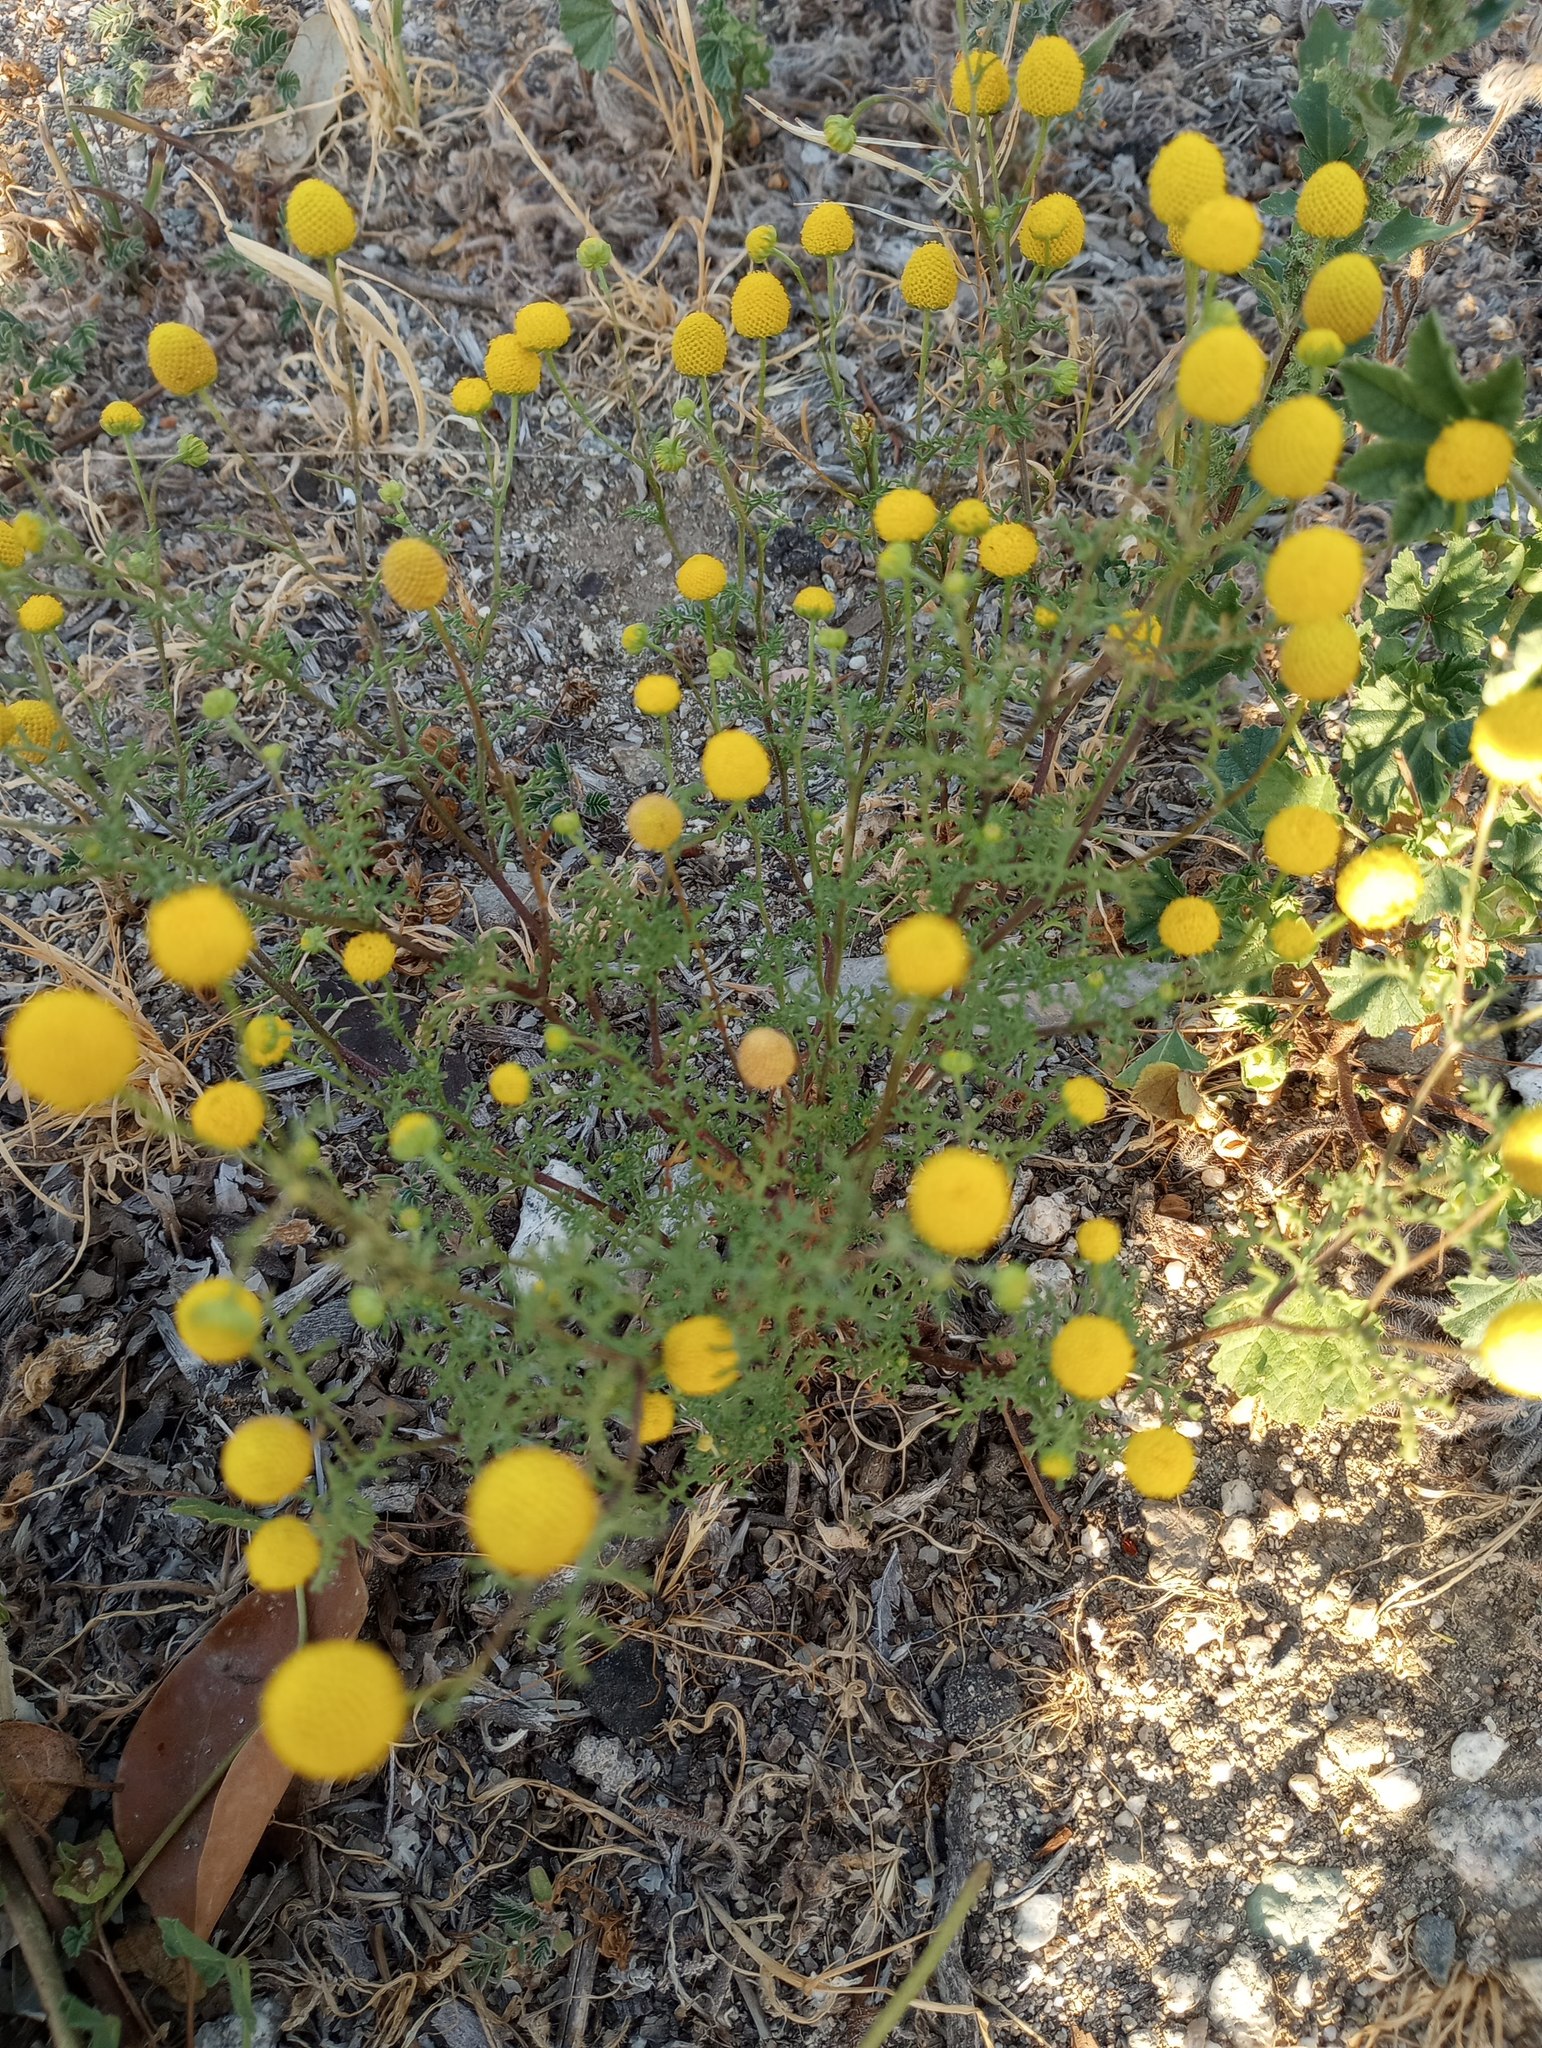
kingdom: Plantae
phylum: Tracheophyta
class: Magnoliopsida
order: Asterales
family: Asteraceae
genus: Oncosiphon
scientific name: Oncosiphon pilulifer
